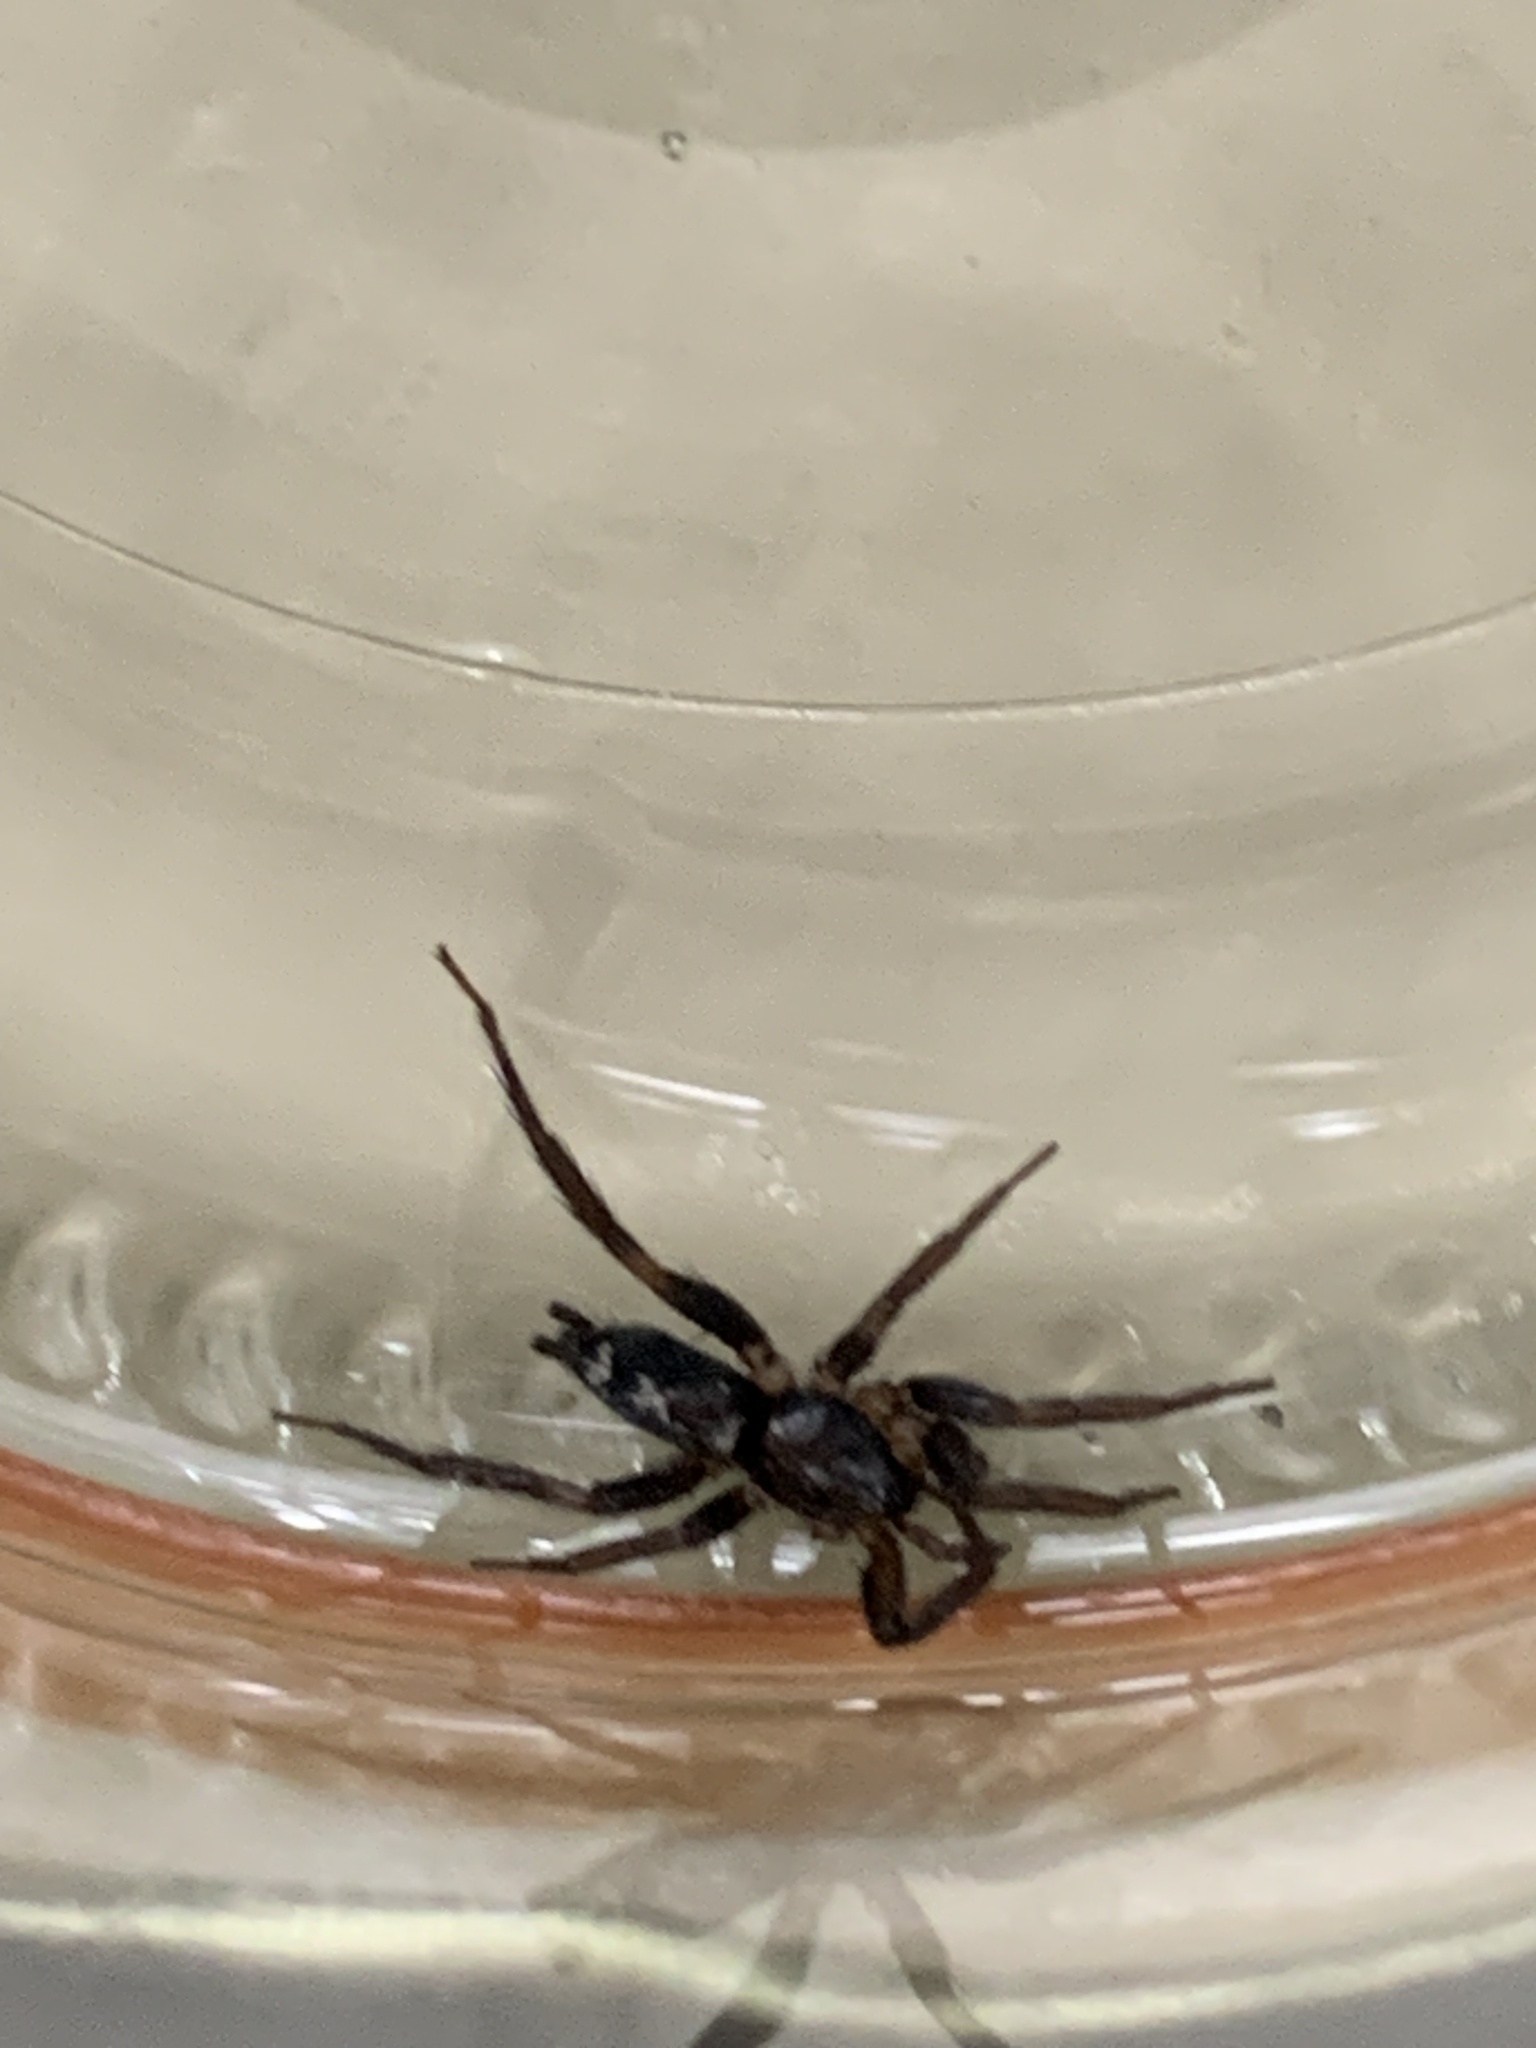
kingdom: Animalia
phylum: Arthropoda
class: Arachnida
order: Araneae
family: Gnaphosidae
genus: Herpyllus
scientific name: Herpyllus ecclesiasticus
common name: Eastern parson spider
